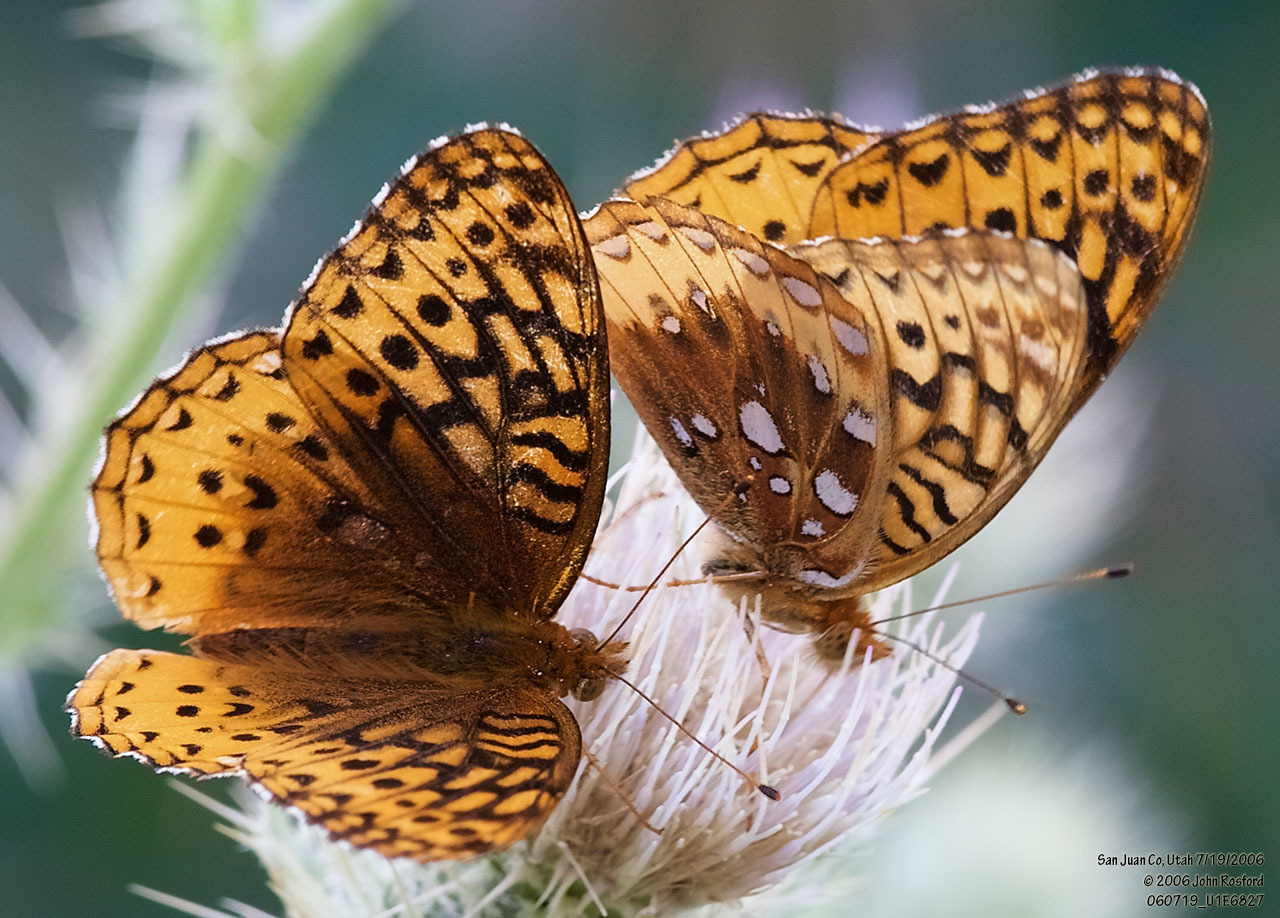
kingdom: Animalia
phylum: Arthropoda
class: Insecta
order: Lepidoptera
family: Nymphalidae
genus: Speyeria
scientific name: Speyeria cybele
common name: Great spangled fritillary
